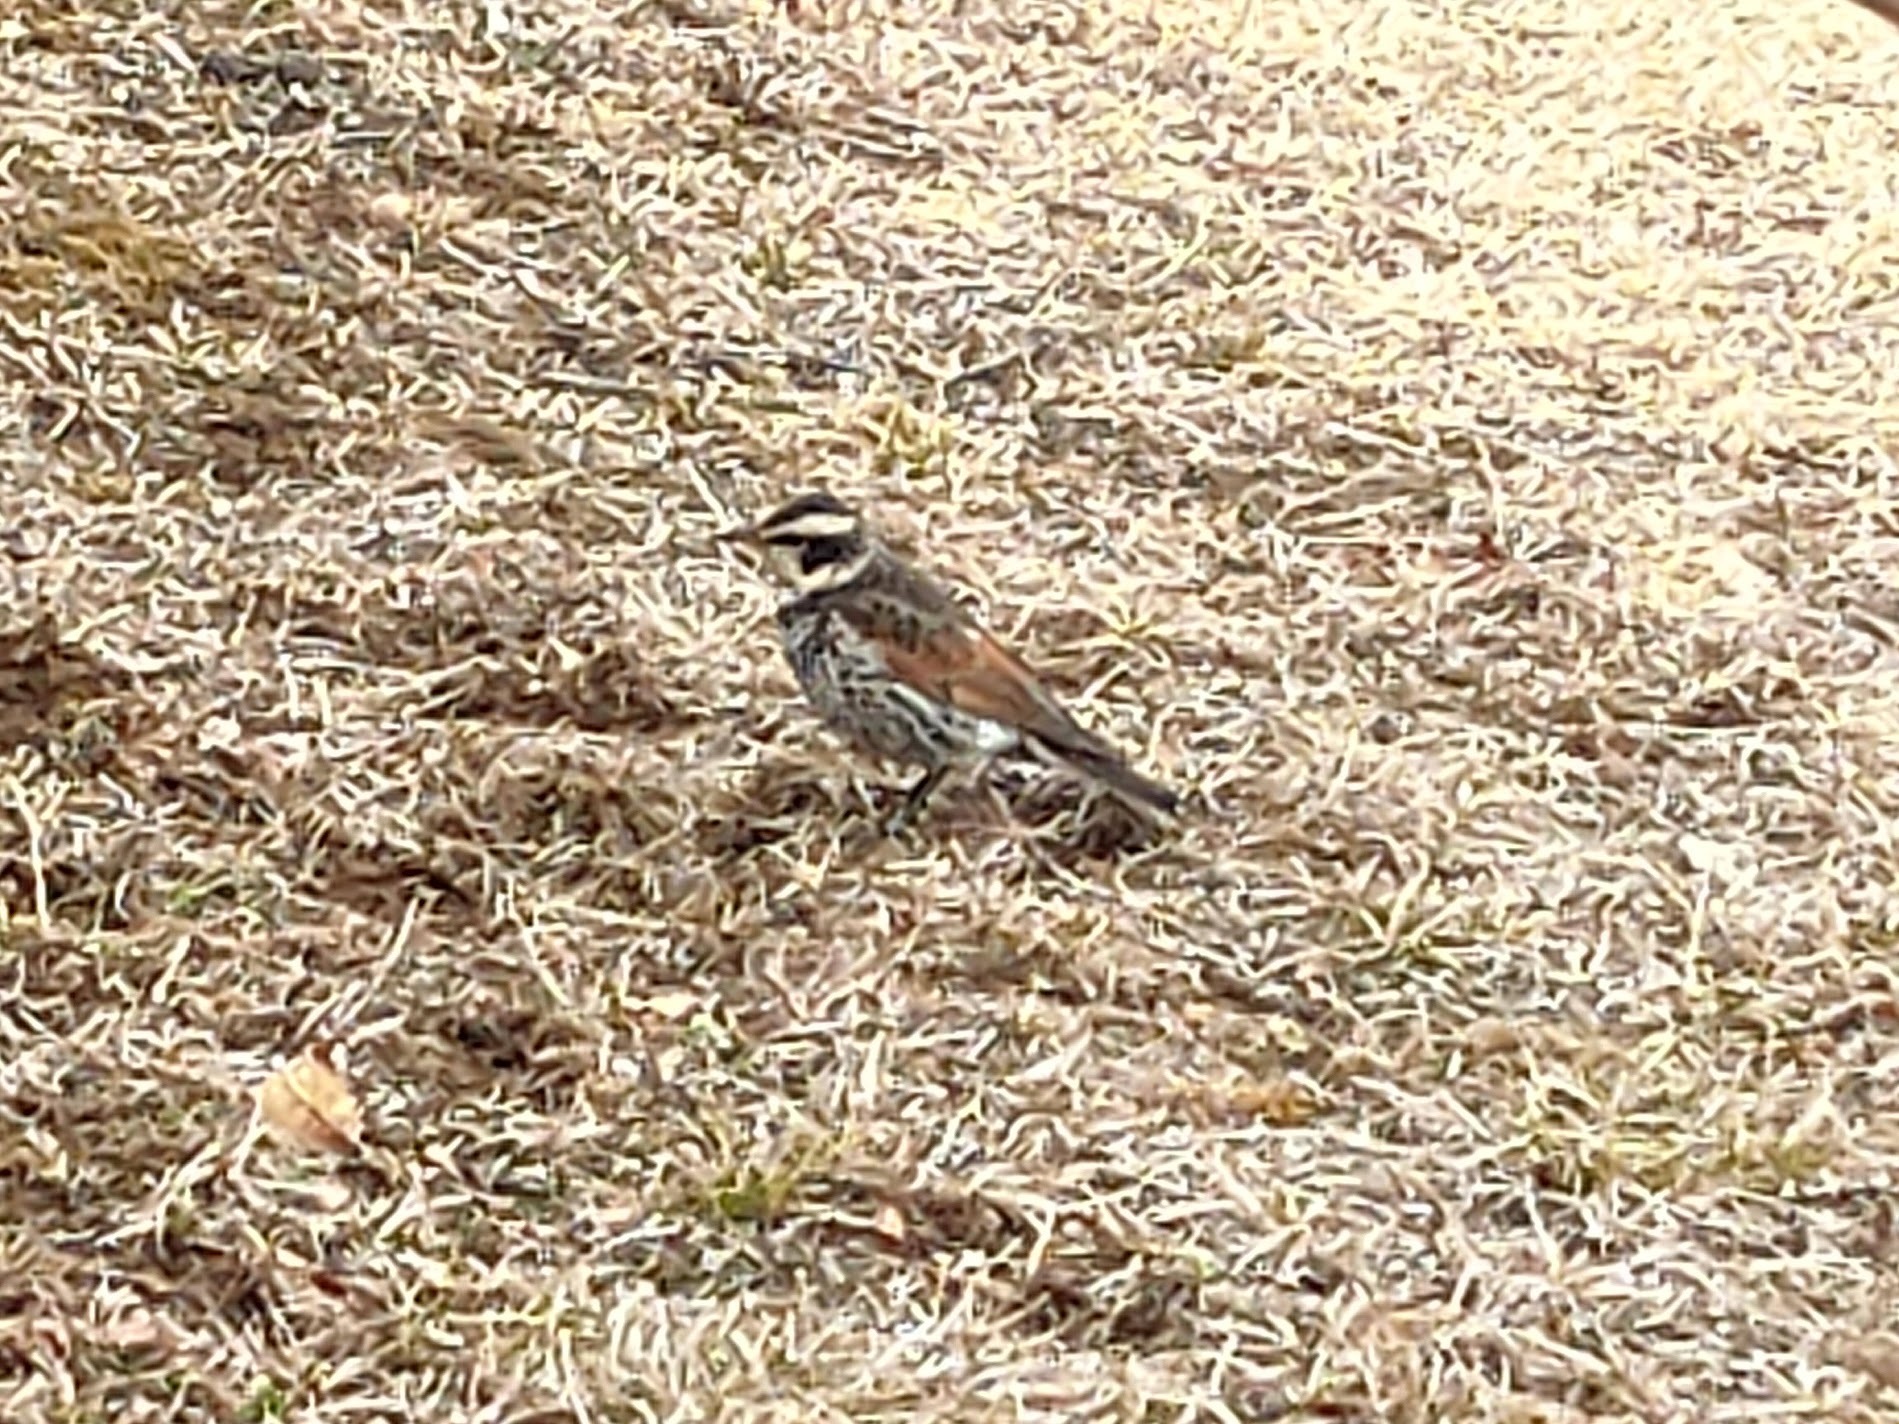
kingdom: Animalia
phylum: Chordata
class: Aves
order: Passeriformes
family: Turdidae
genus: Turdus
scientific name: Turdus eunomus
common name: Dusky thrush
